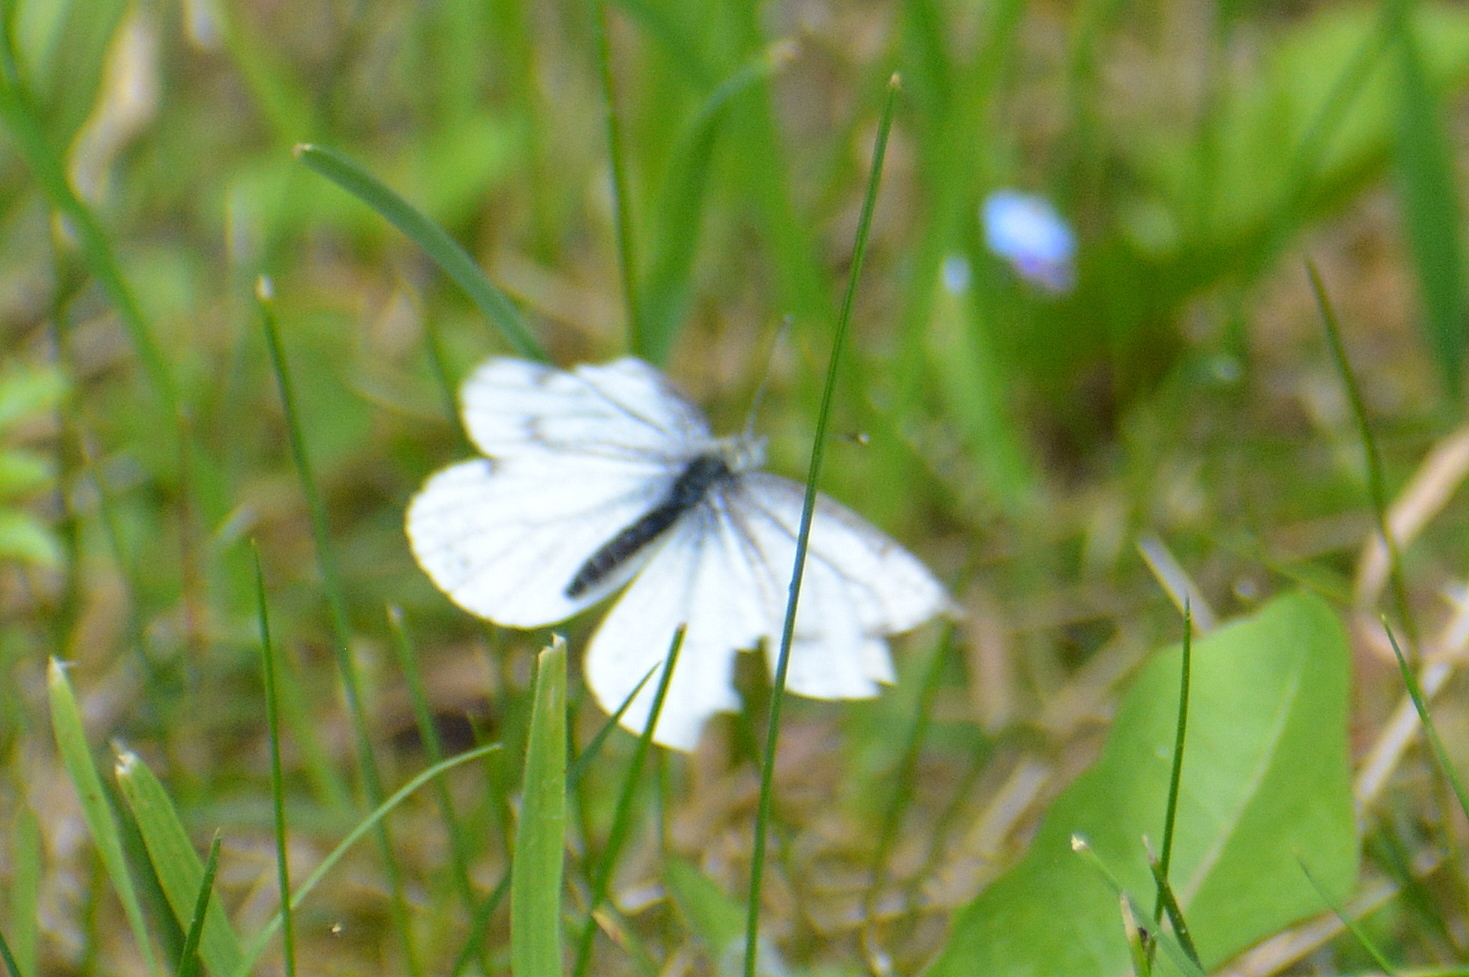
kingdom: Animalia
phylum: Arthropoda
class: Insecta
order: Lepidoptera
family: Pieridae
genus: Pieris
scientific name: Pieris napi
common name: Green-veined white
